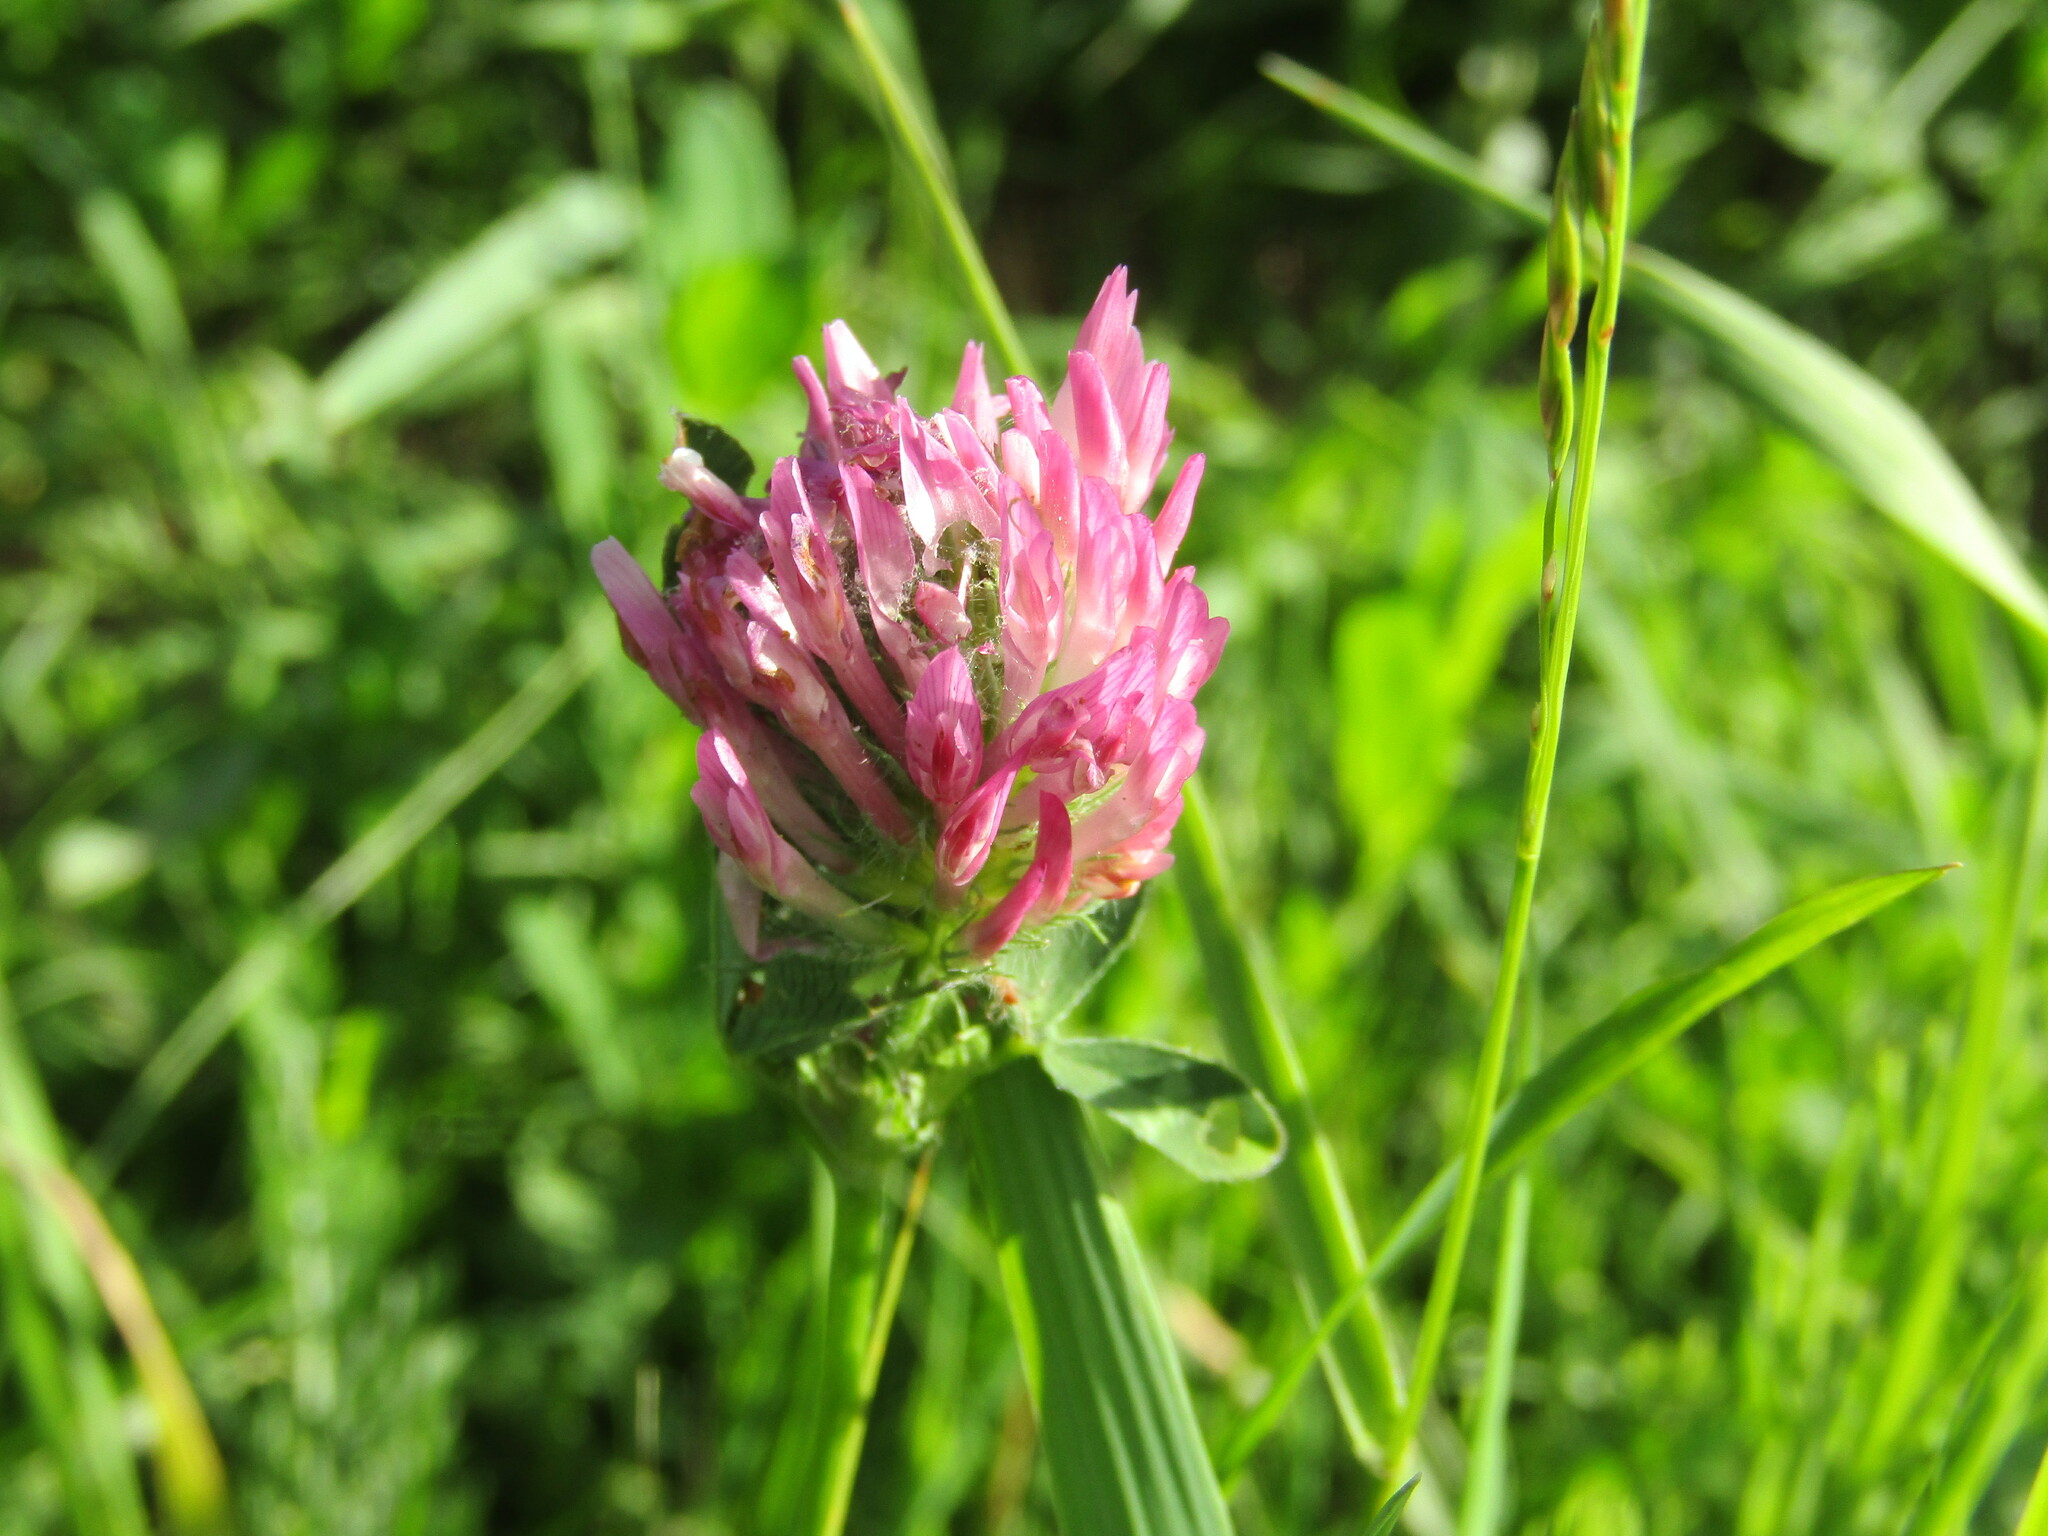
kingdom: Plantae
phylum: Tracheophyta
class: Magnoliopsida
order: Fabales
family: Fabaceae
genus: Trifolium
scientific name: Trifolium pratense
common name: Red clover
